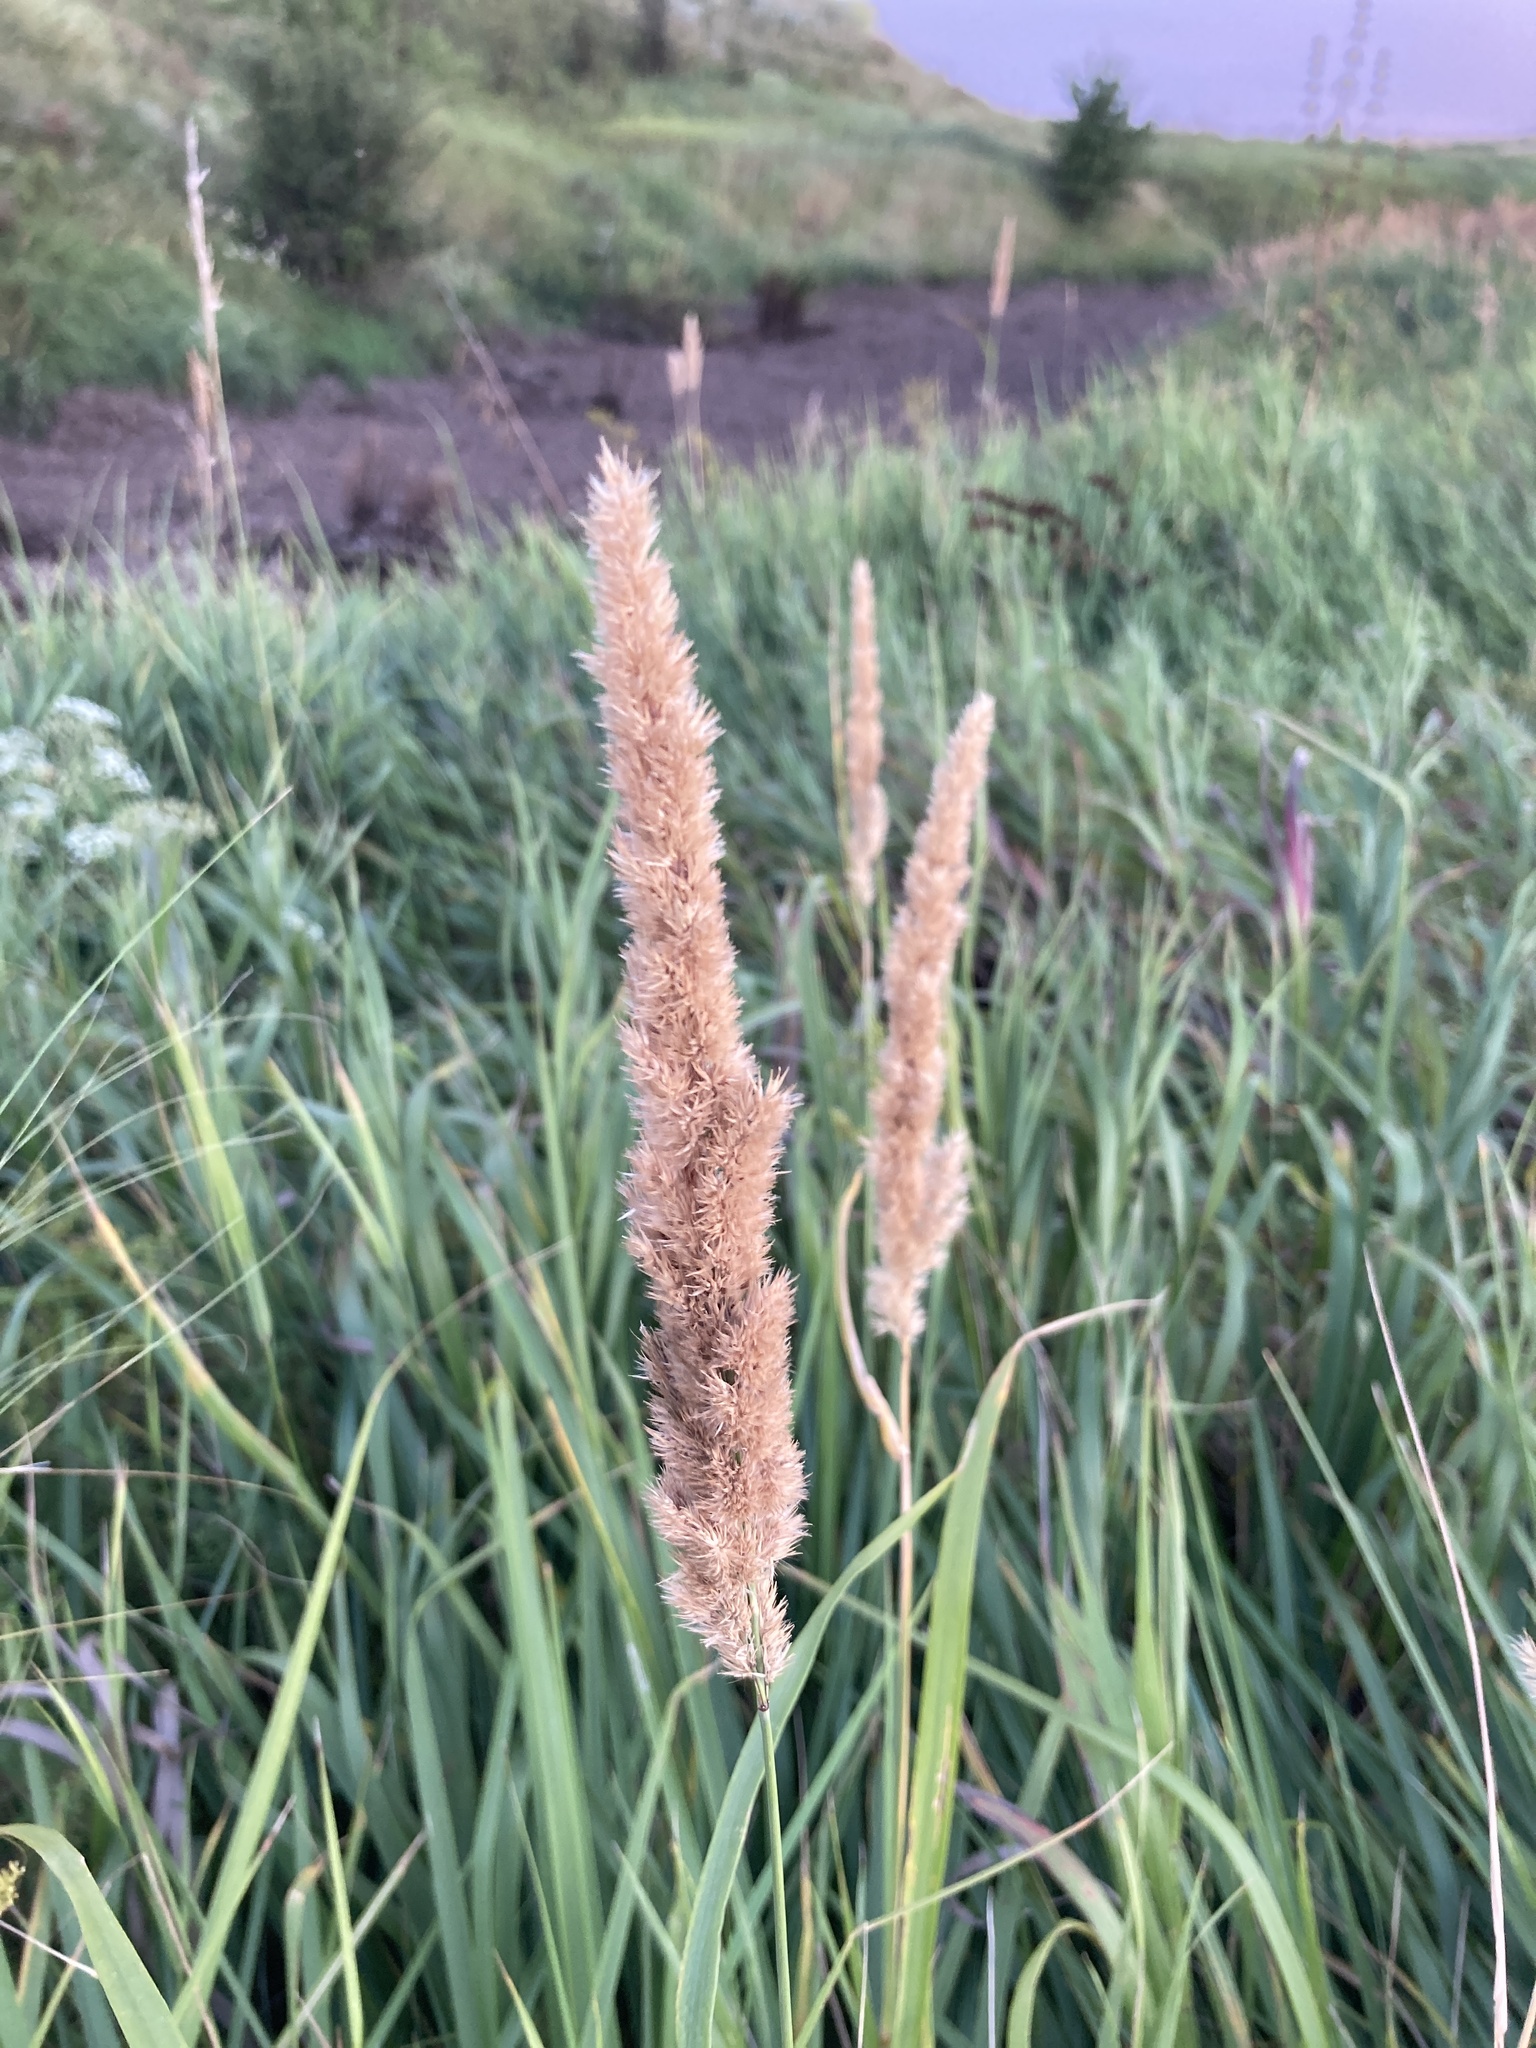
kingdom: Plantae
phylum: Tracheophyta
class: Liliopsida
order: Poales
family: Poaceae
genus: Calamagrostis
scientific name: Calamagrostis epigejos
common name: Wood small-reed
